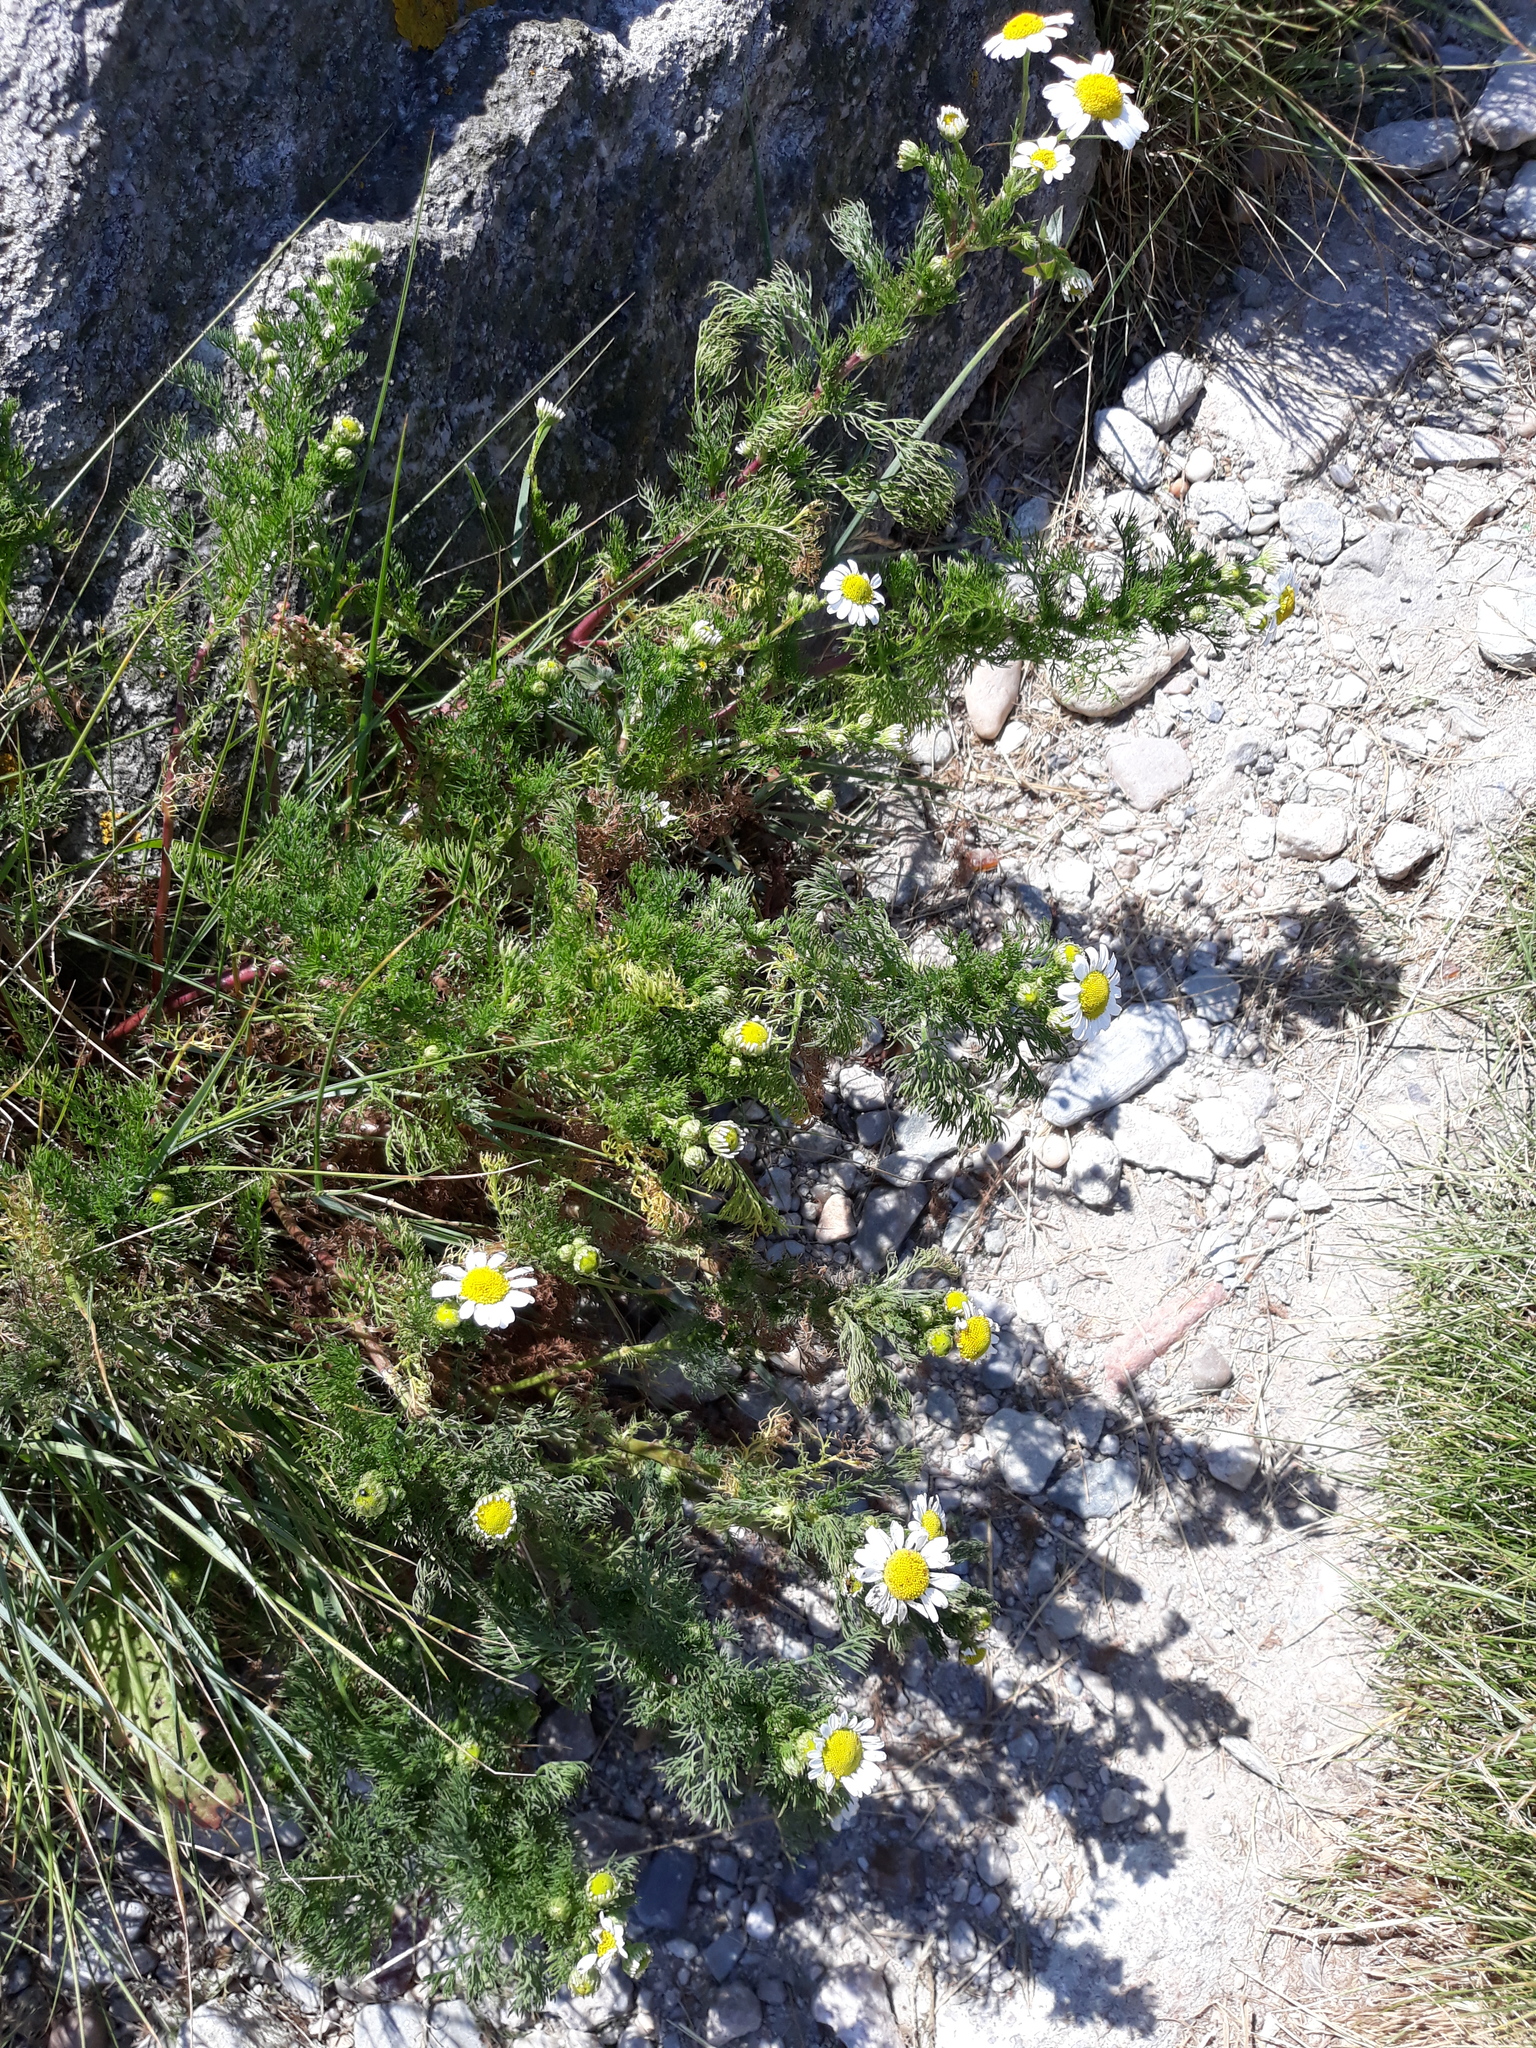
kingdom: Plantae
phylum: Tracheophyta
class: Magnoliopsida
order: Asterales
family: Asteraceae
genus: Tripleurospermum
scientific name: Tripleurospermum maritimum
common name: Sea mayweed
